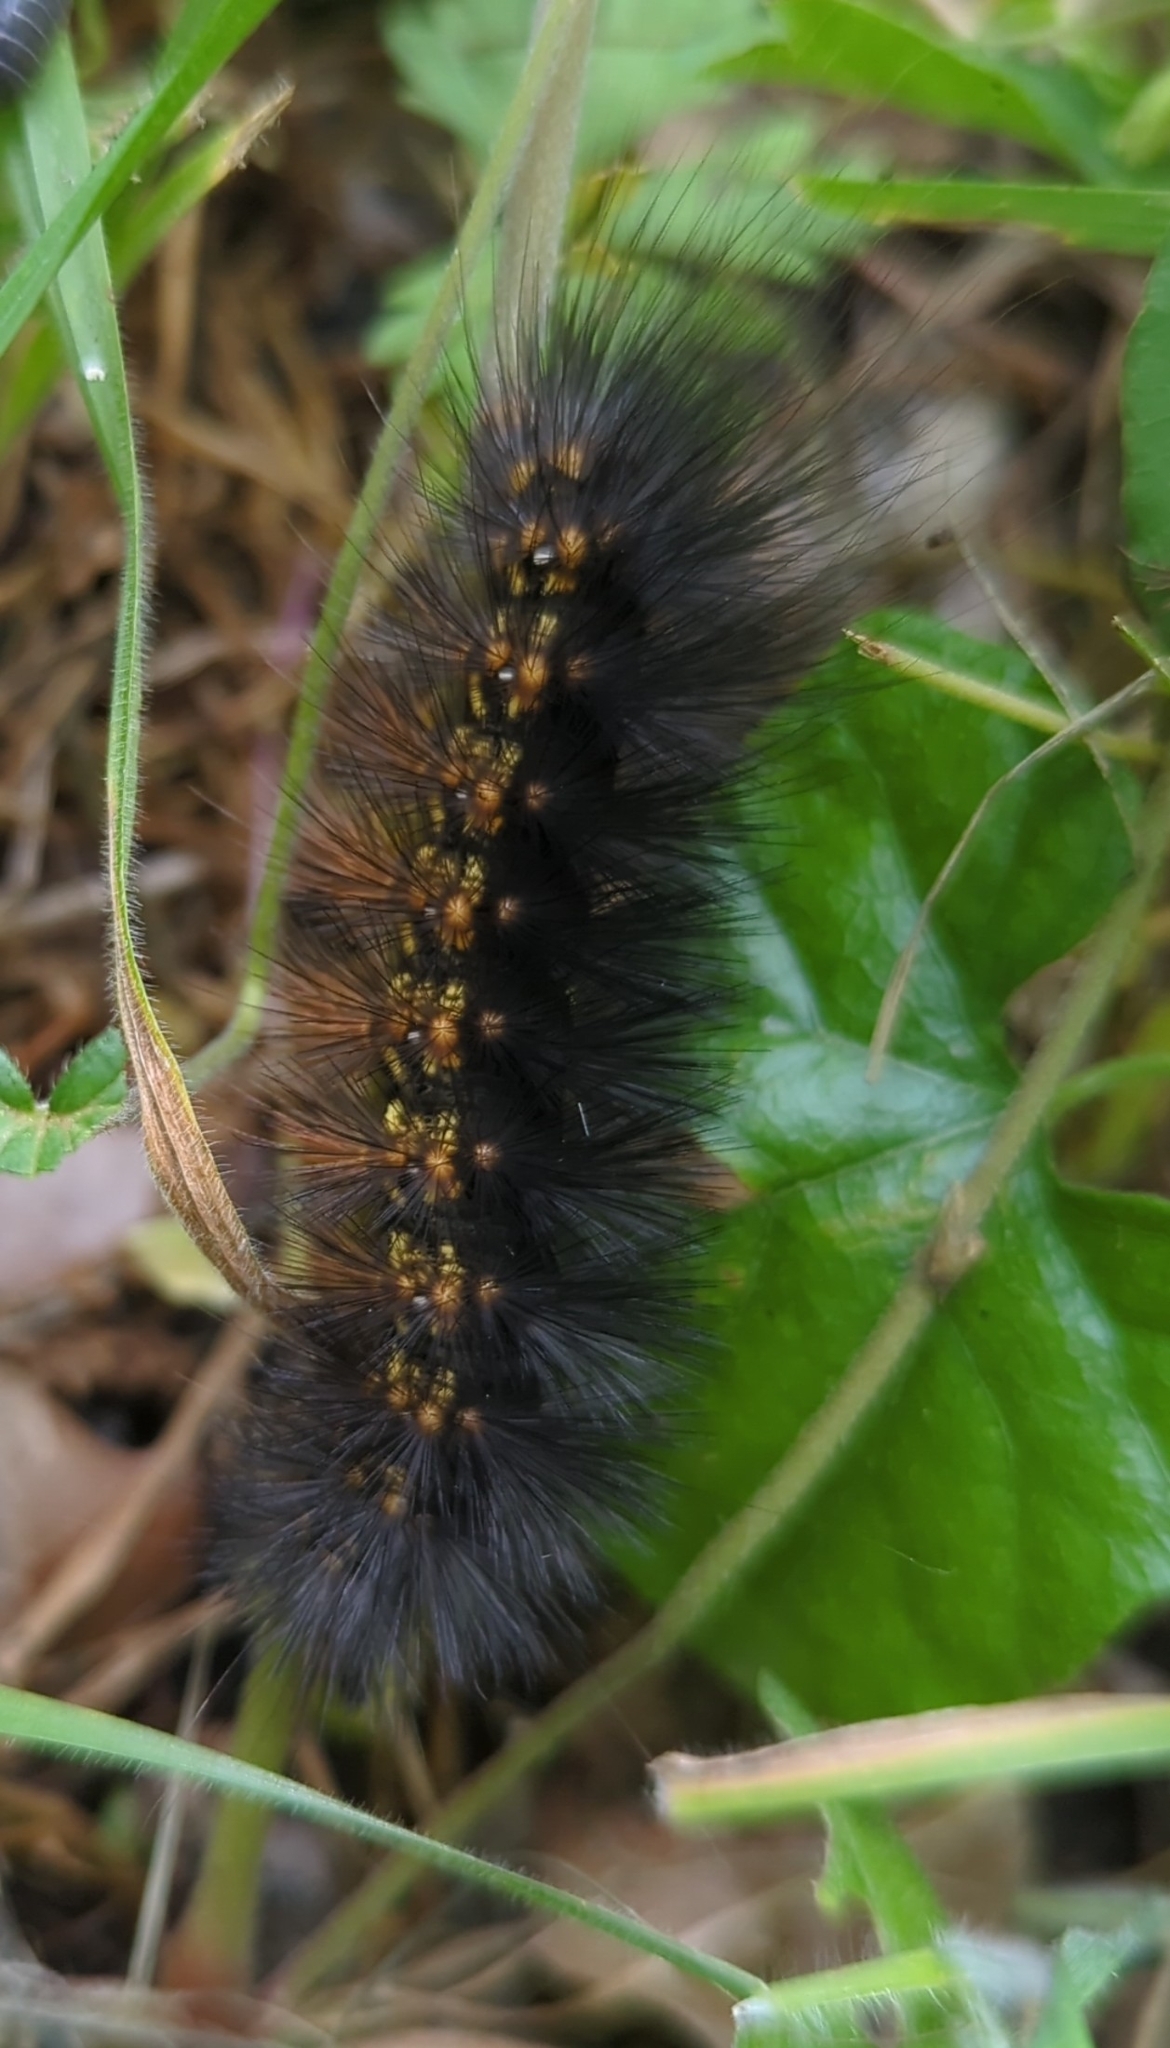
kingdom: Animalia
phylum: Arthropoda
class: Insecta
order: Lepidoptera
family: Erebidae
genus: Estigmene
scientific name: Estigmene acrea
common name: Salt marsh moth
